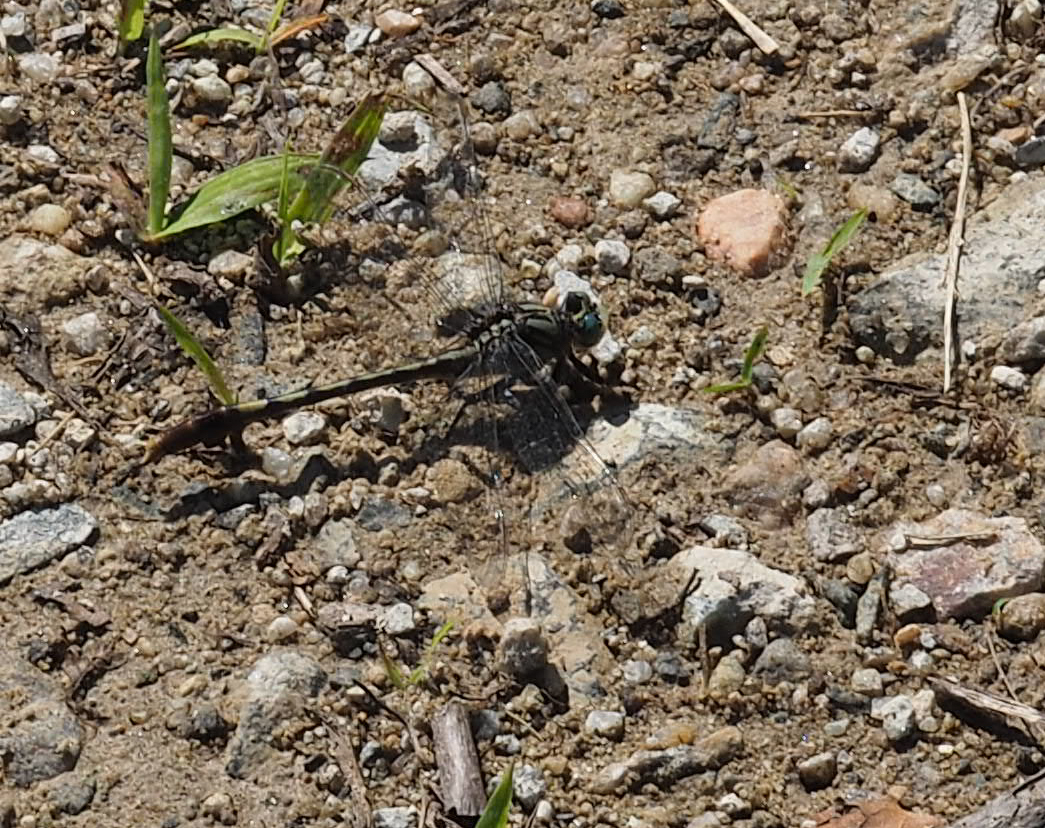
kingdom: Animalia
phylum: Arthropoda
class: Insecta
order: Odonata
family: Gomphidae
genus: Arigomphus
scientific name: Arigomphus villosipes
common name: Unicorn clubtail
